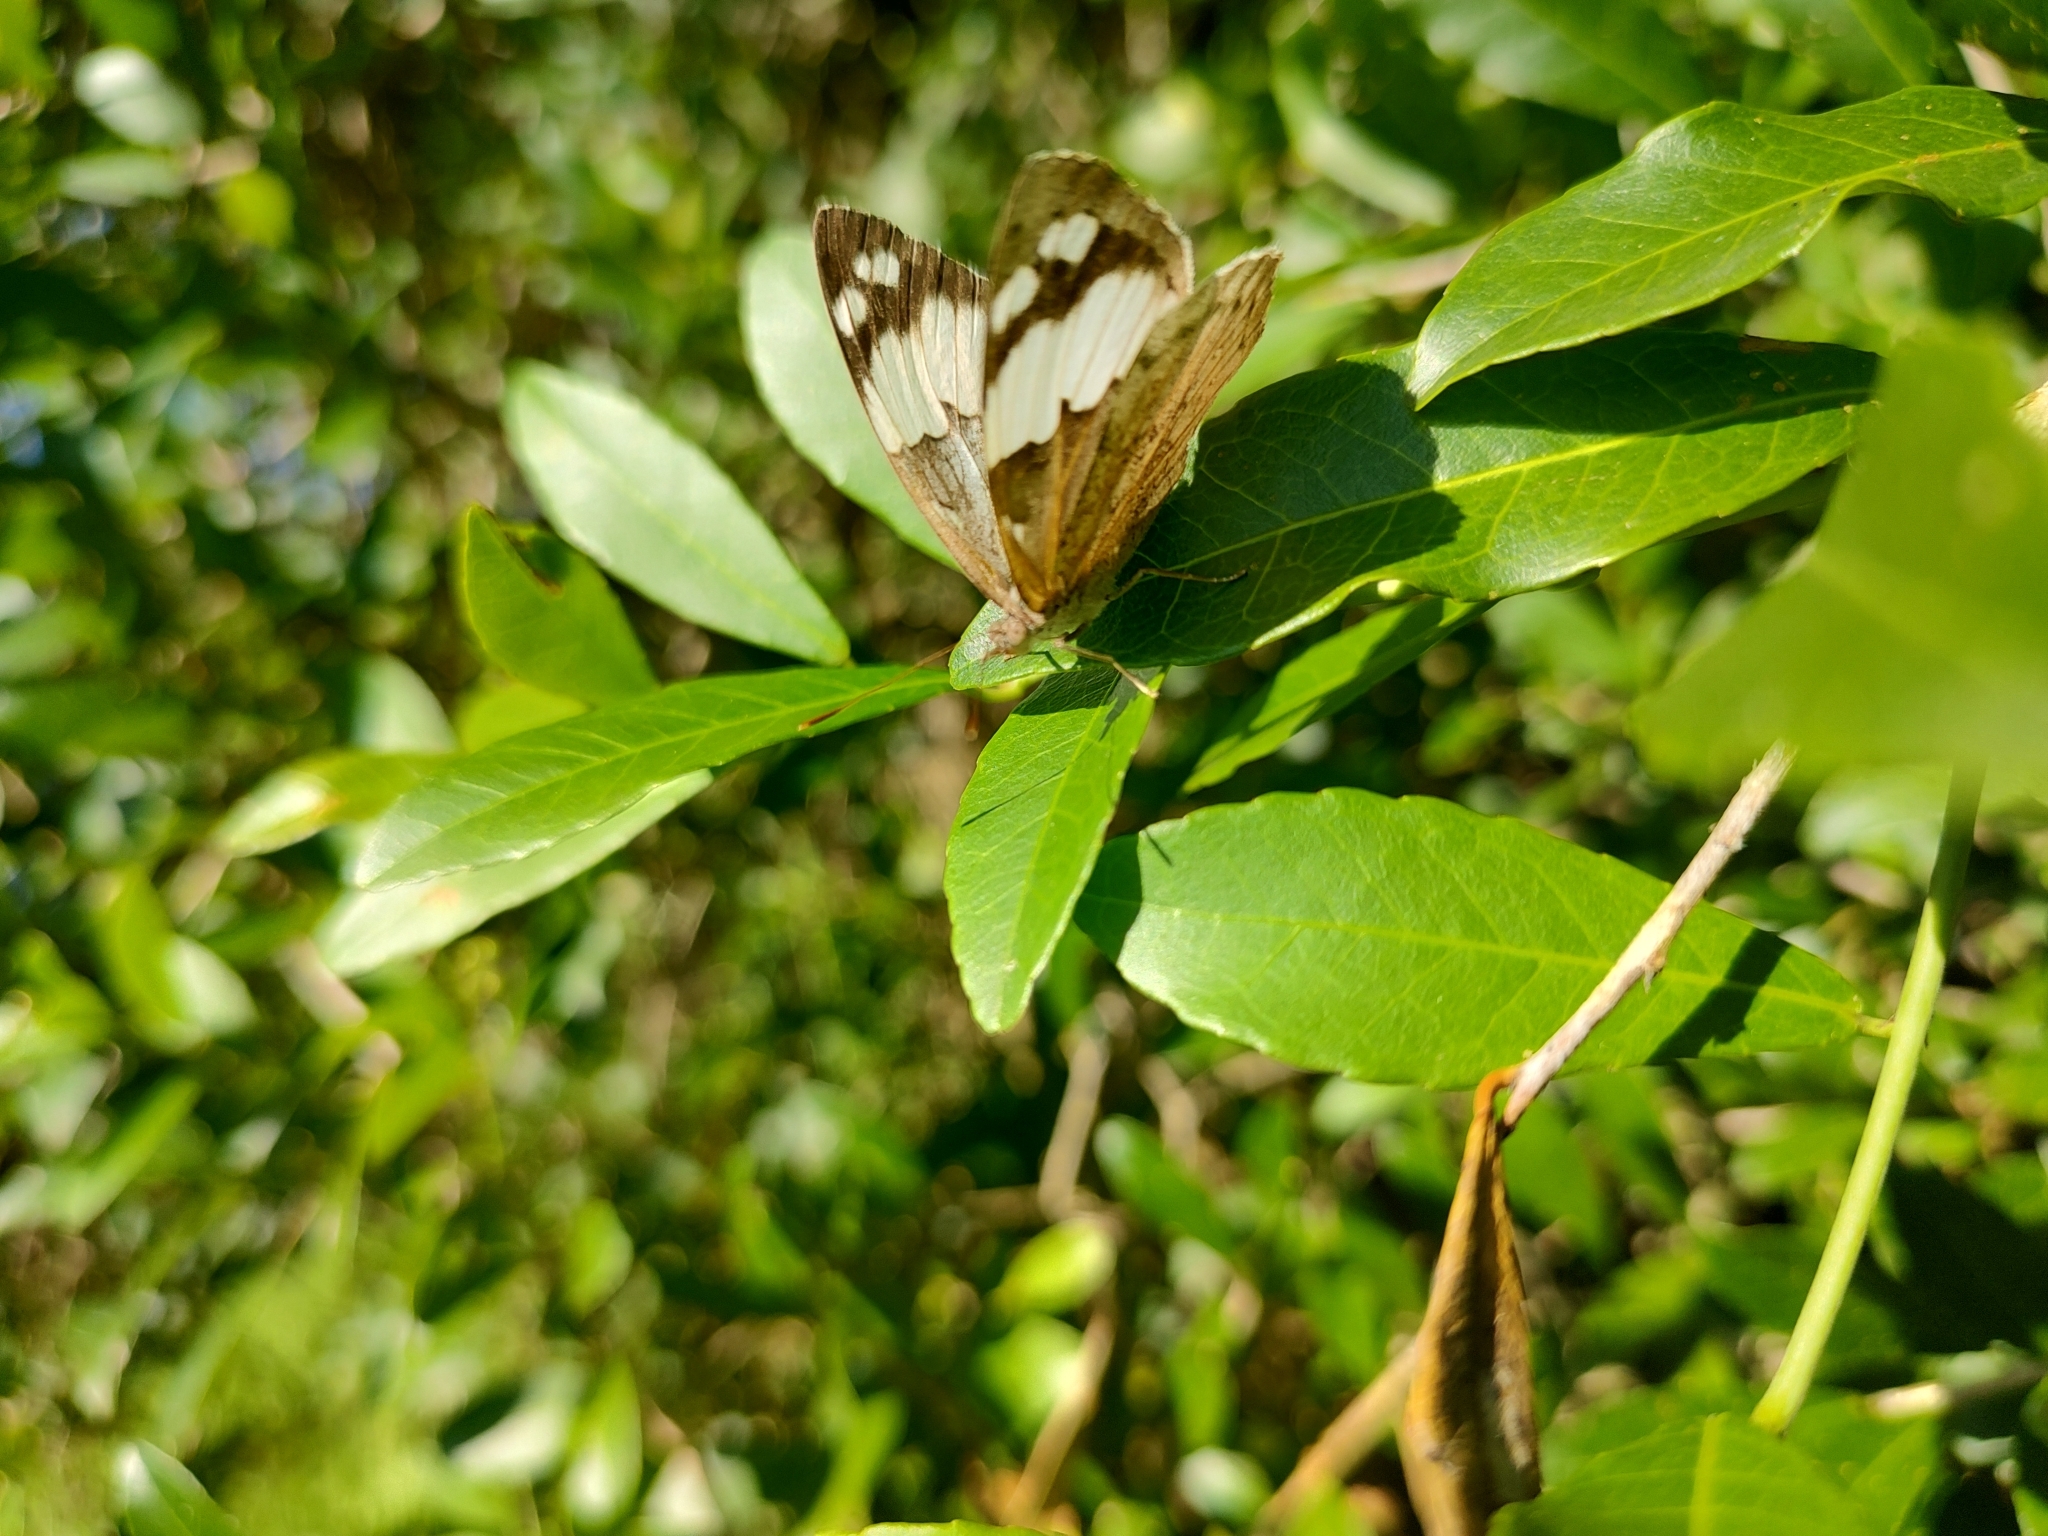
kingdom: Animalia
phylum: Arthropoda
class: Insecta
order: Lepidoptera
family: Nymphalidae
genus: Eunica
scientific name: Eunica eburnea
